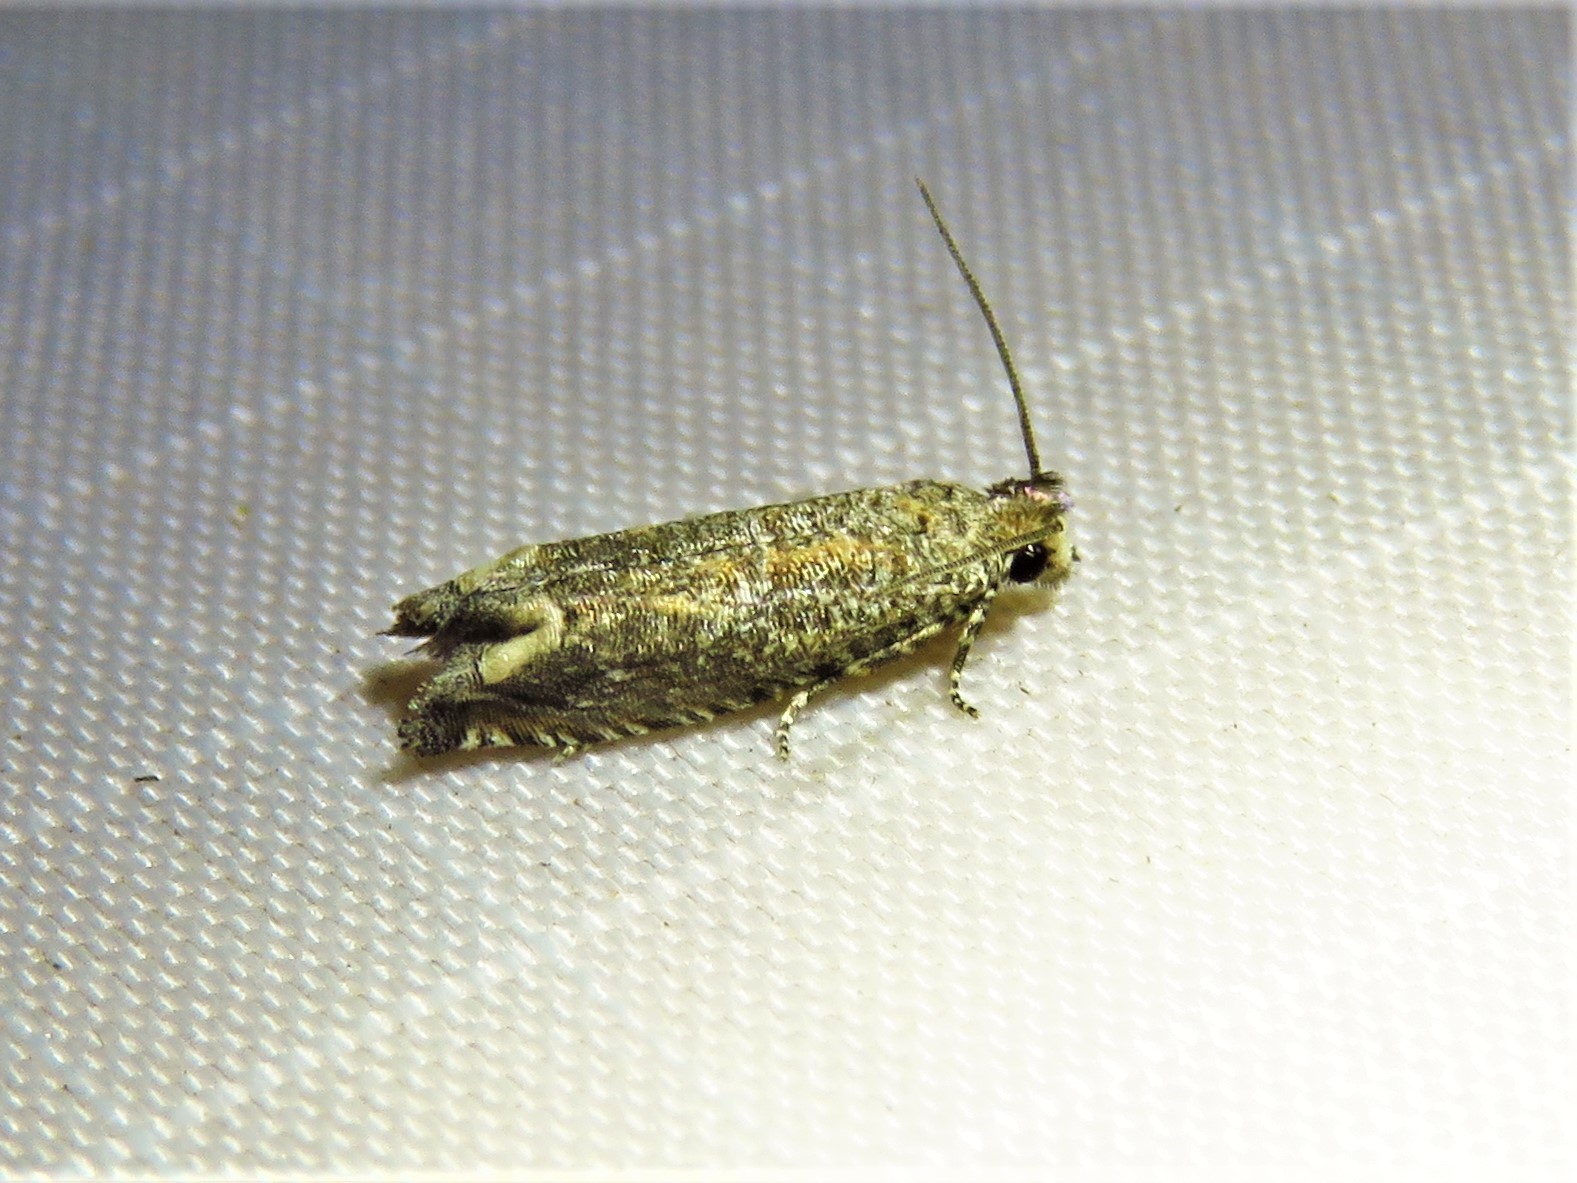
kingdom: Animalia
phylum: Arthropoda
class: Insecta
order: Lepidoptera
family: Tortricidae
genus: Pelochrista
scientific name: Pelochrista comatulana
